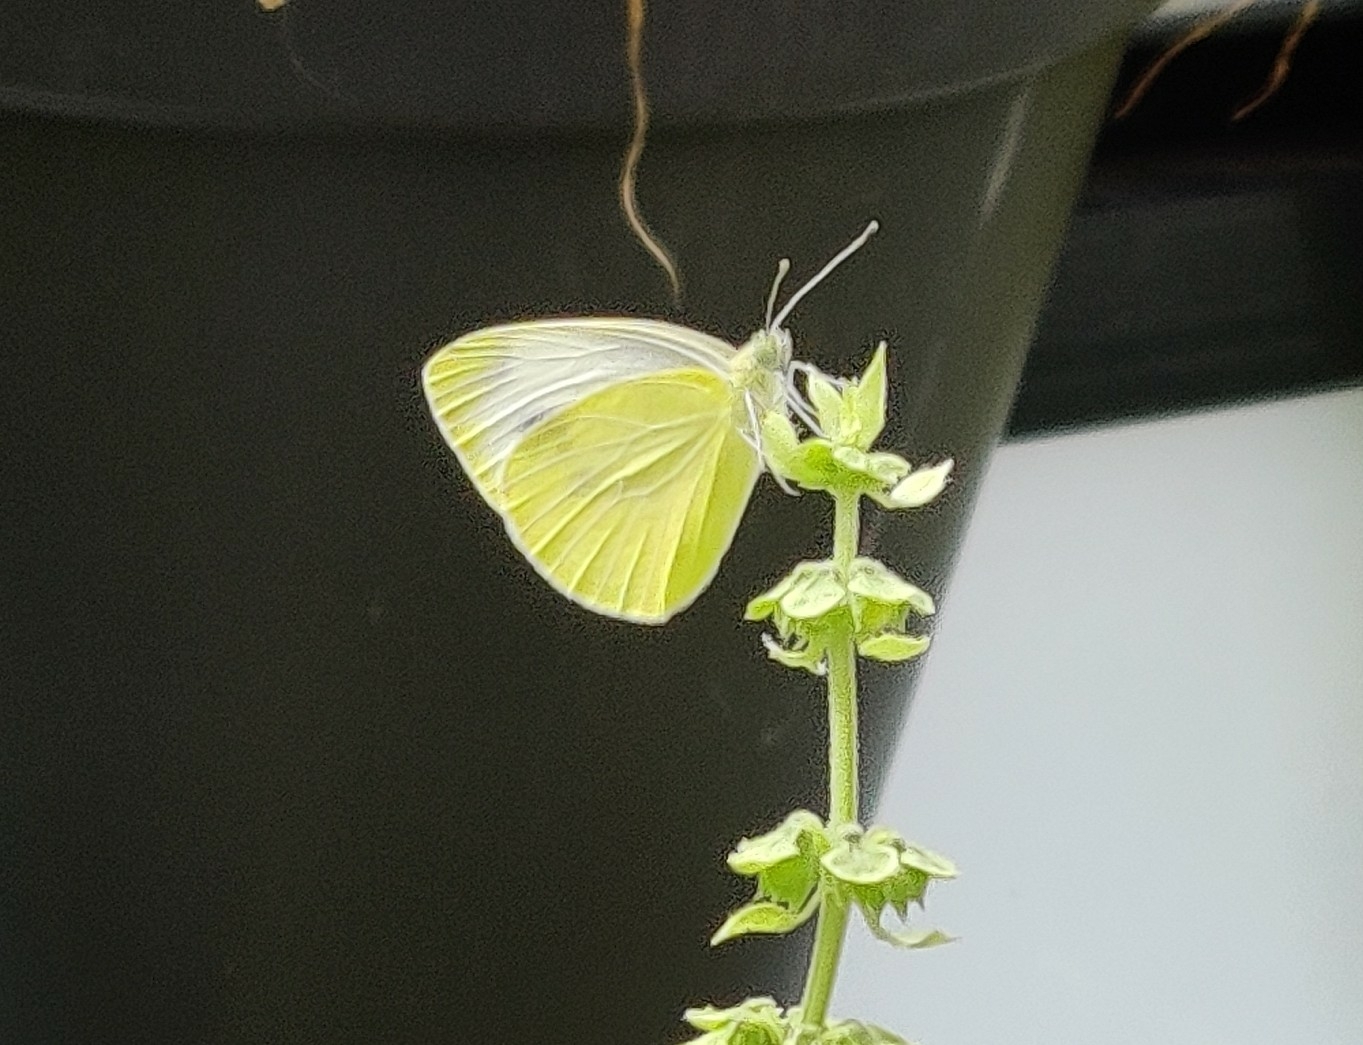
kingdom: Animalia
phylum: Arthropoda
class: Insecta
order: Lepidoptera
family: Pieridae
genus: Pieris
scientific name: Pieris mannii
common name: Southern small white
